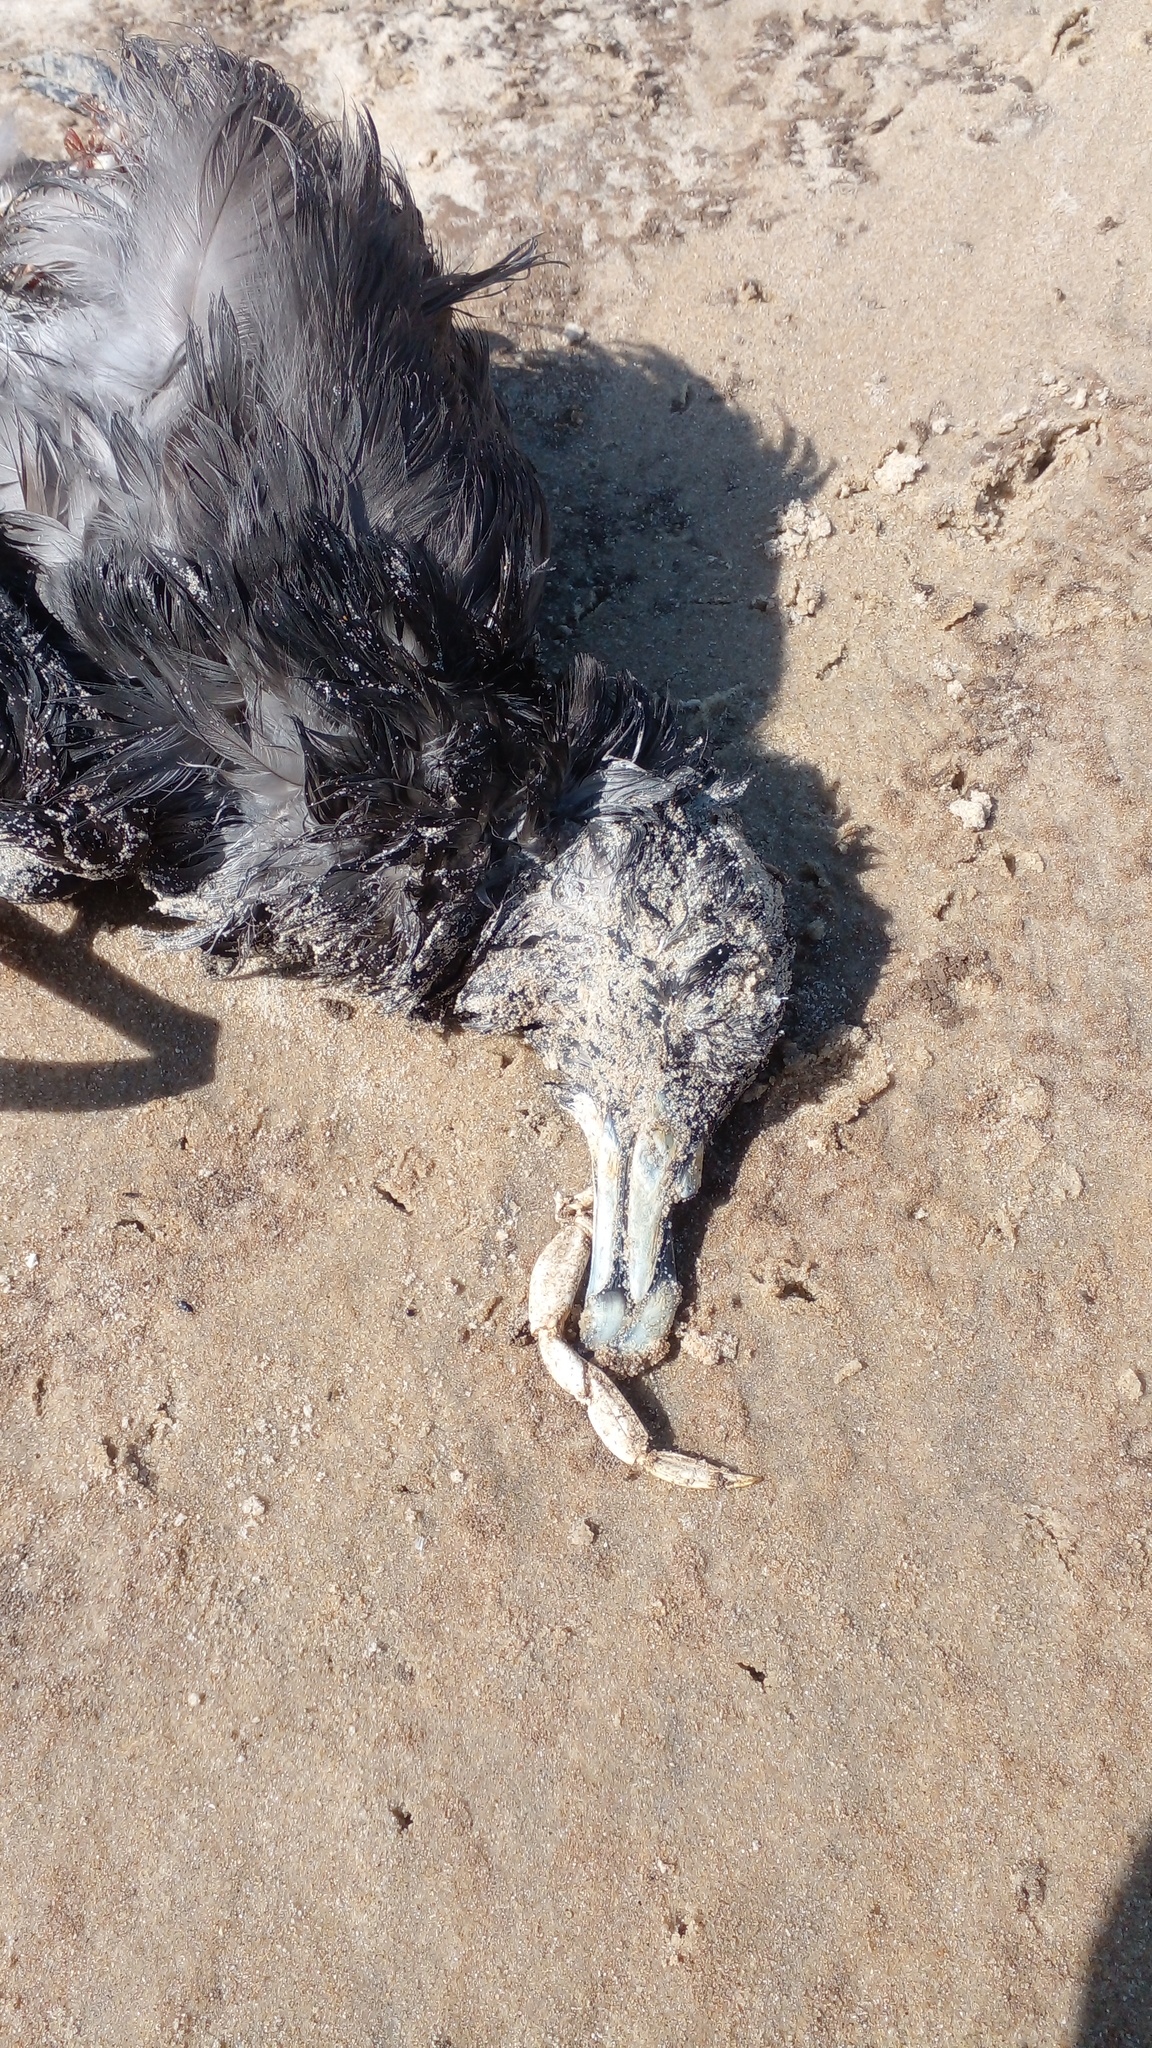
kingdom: Animalia
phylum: Chordata
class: Aves
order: Procellariiformes
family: Procellariidae
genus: Procellaria
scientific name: Procellaria aequinoctialis
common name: White-chinned petrel
